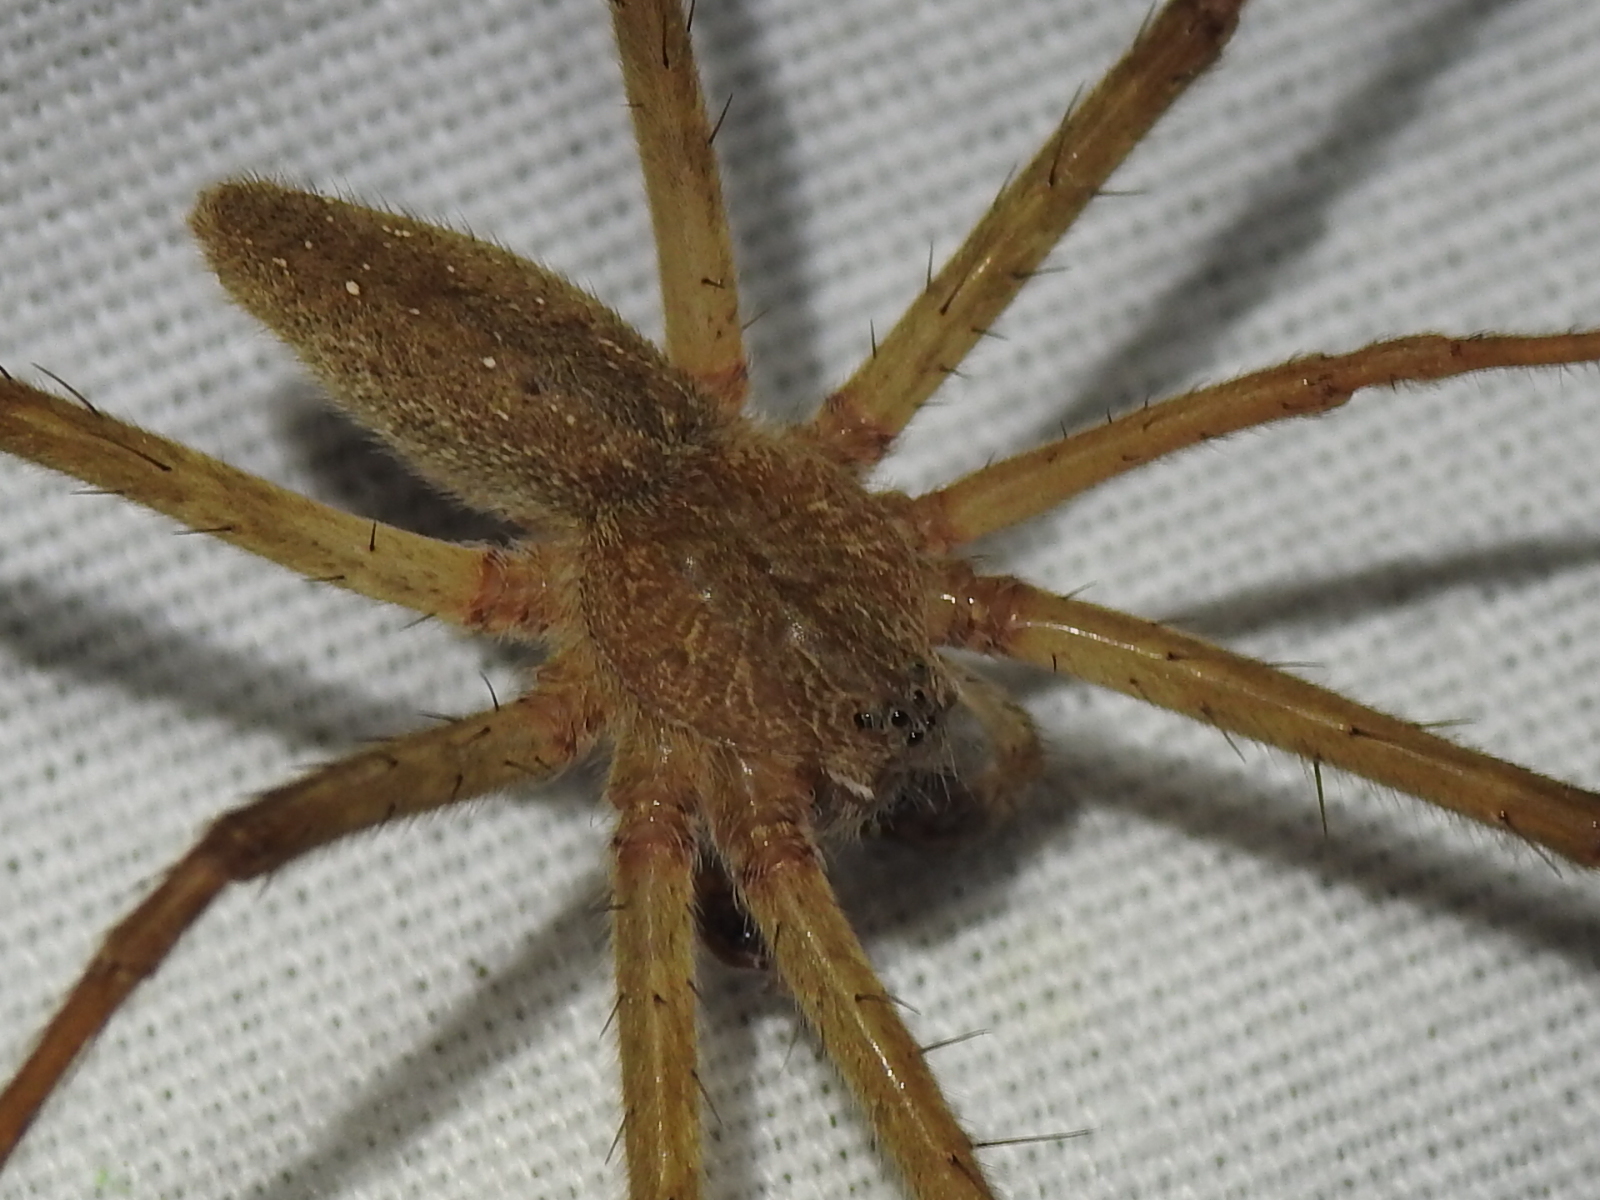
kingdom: Animalia
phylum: Arthropoda
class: Arachnida
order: Araneae
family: Pisauridae
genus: Pisaurina
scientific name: Pisaurina mira
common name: American nursery web spider
